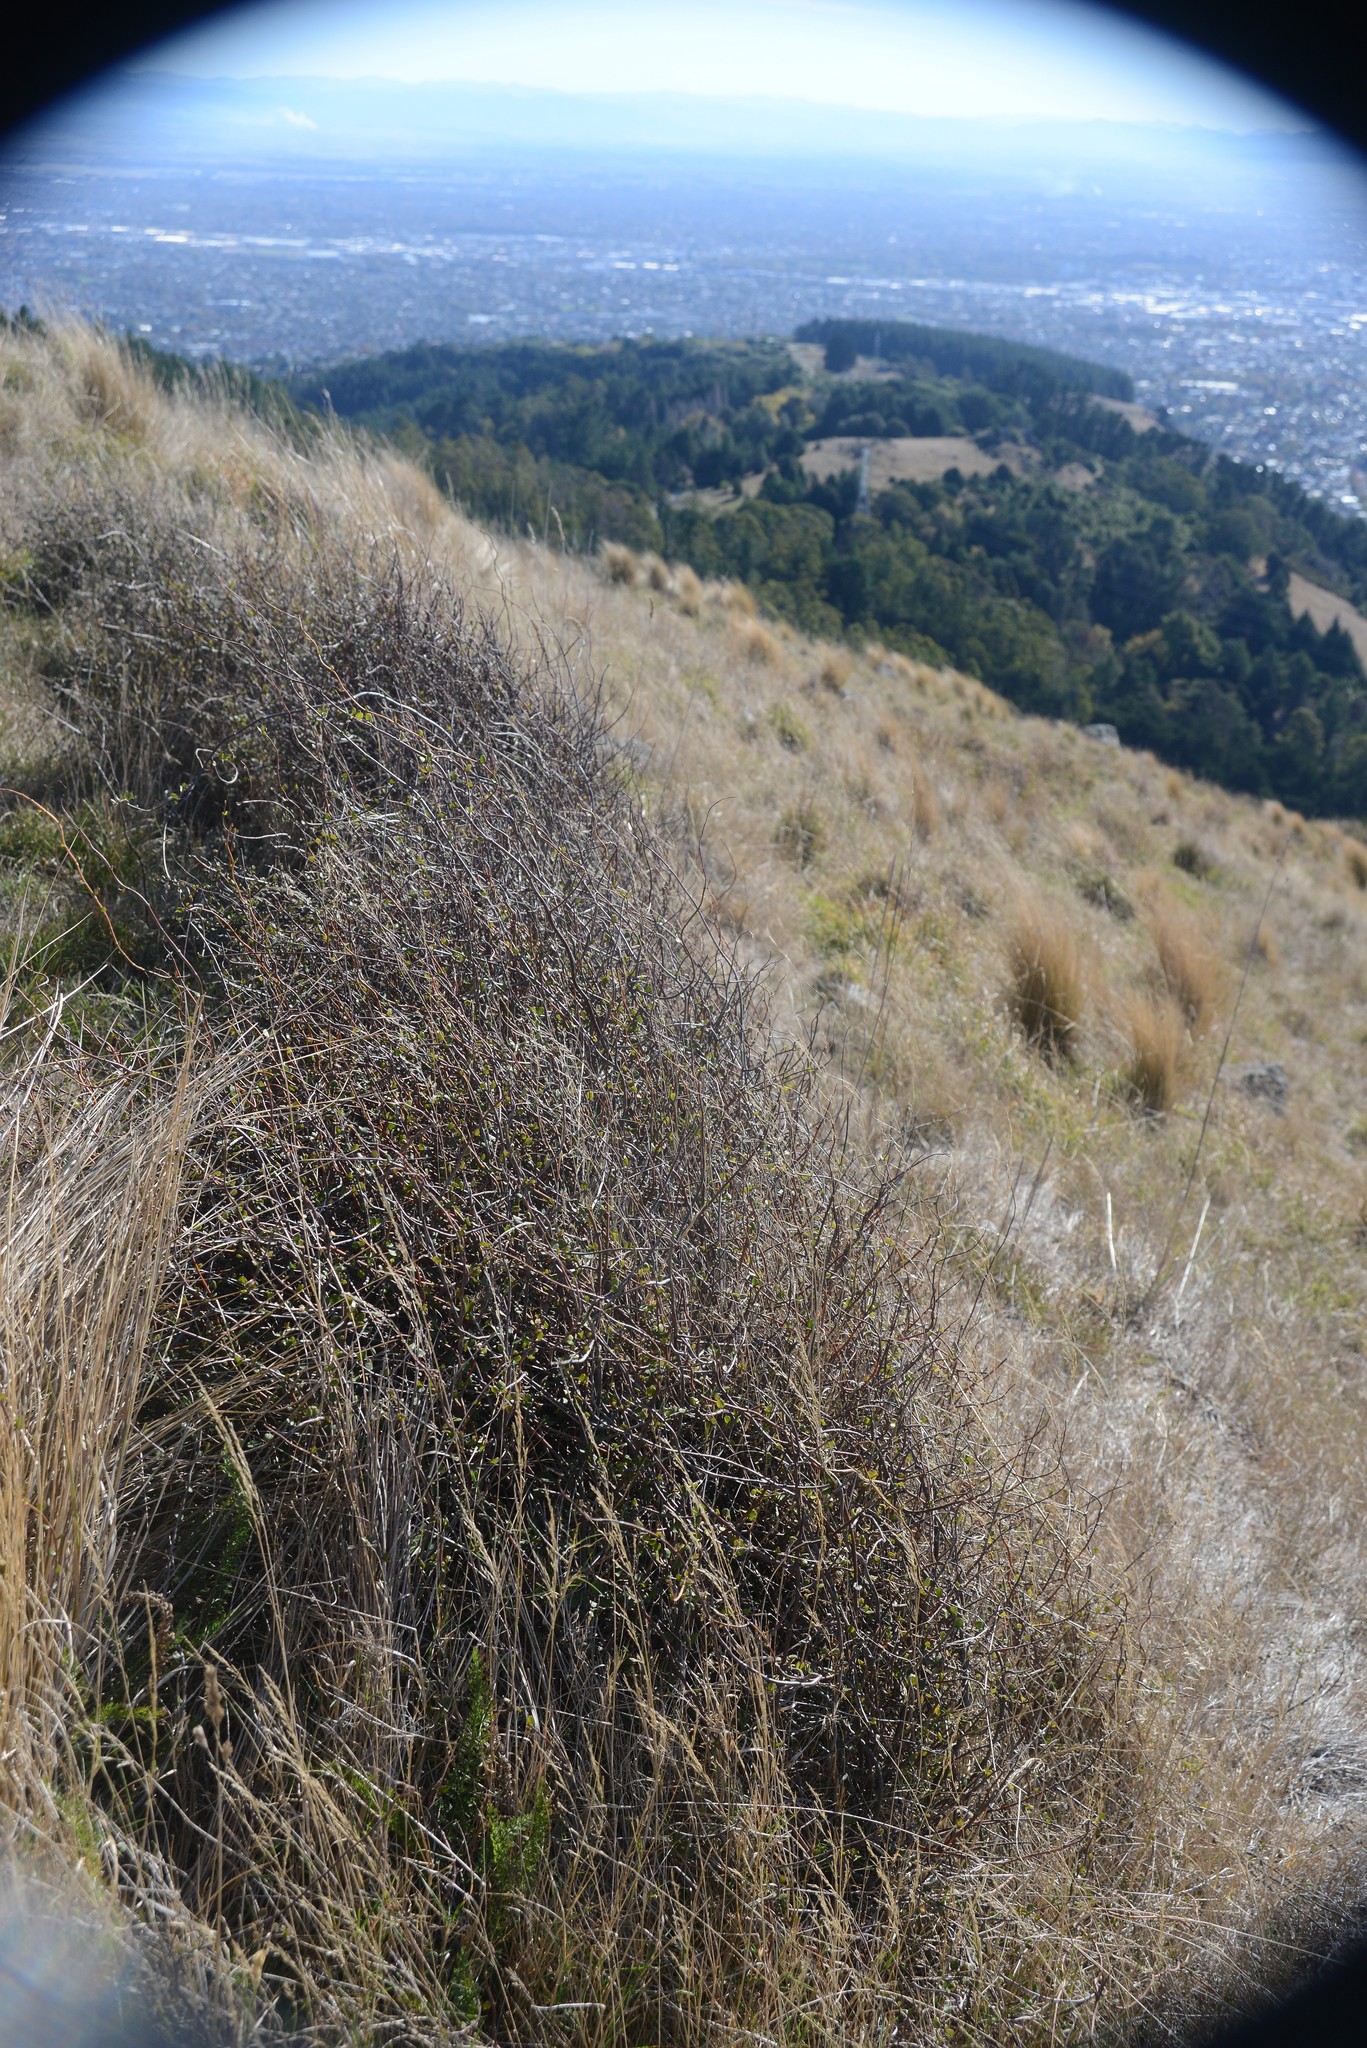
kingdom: Plantae
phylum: Tracheophyta
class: Magnoliopsida
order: Caryophyllales
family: Polygonaceae
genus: Muehlenbeckia
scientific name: Muehlenbeckia complexa
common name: Wireplant
